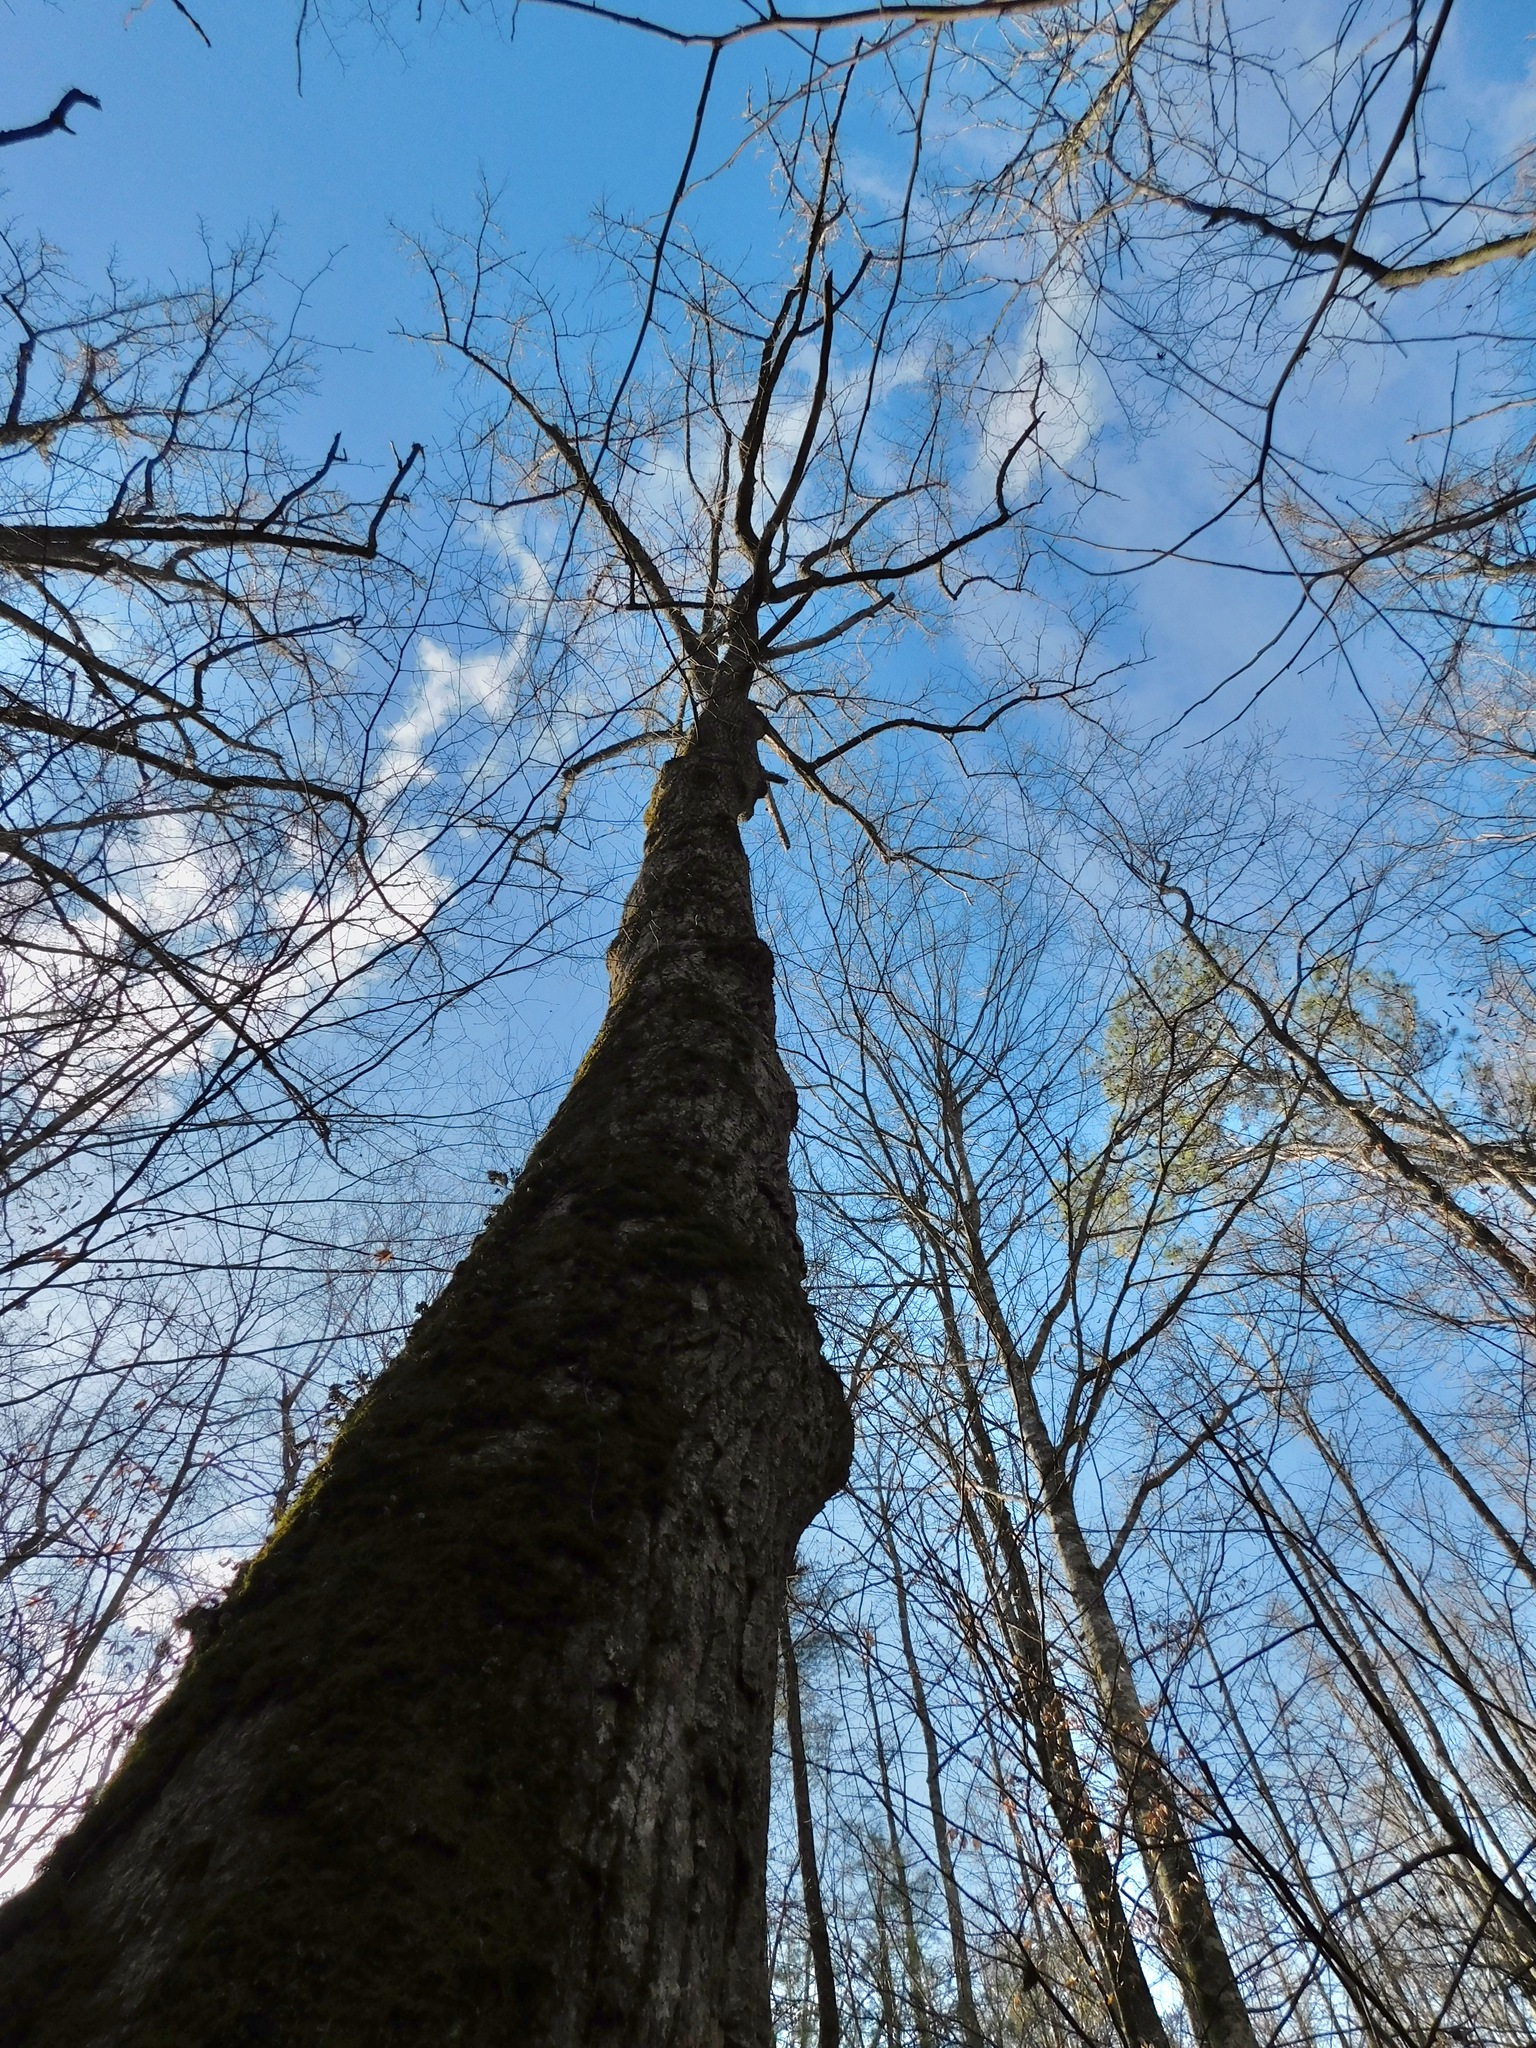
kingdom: Plantae
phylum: Tracheophyta
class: Magnoliopsida
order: Magnoliales
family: Magnoliaceae
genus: Liriodendron
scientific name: Liriodendron tulipifera
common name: Tulip tree
